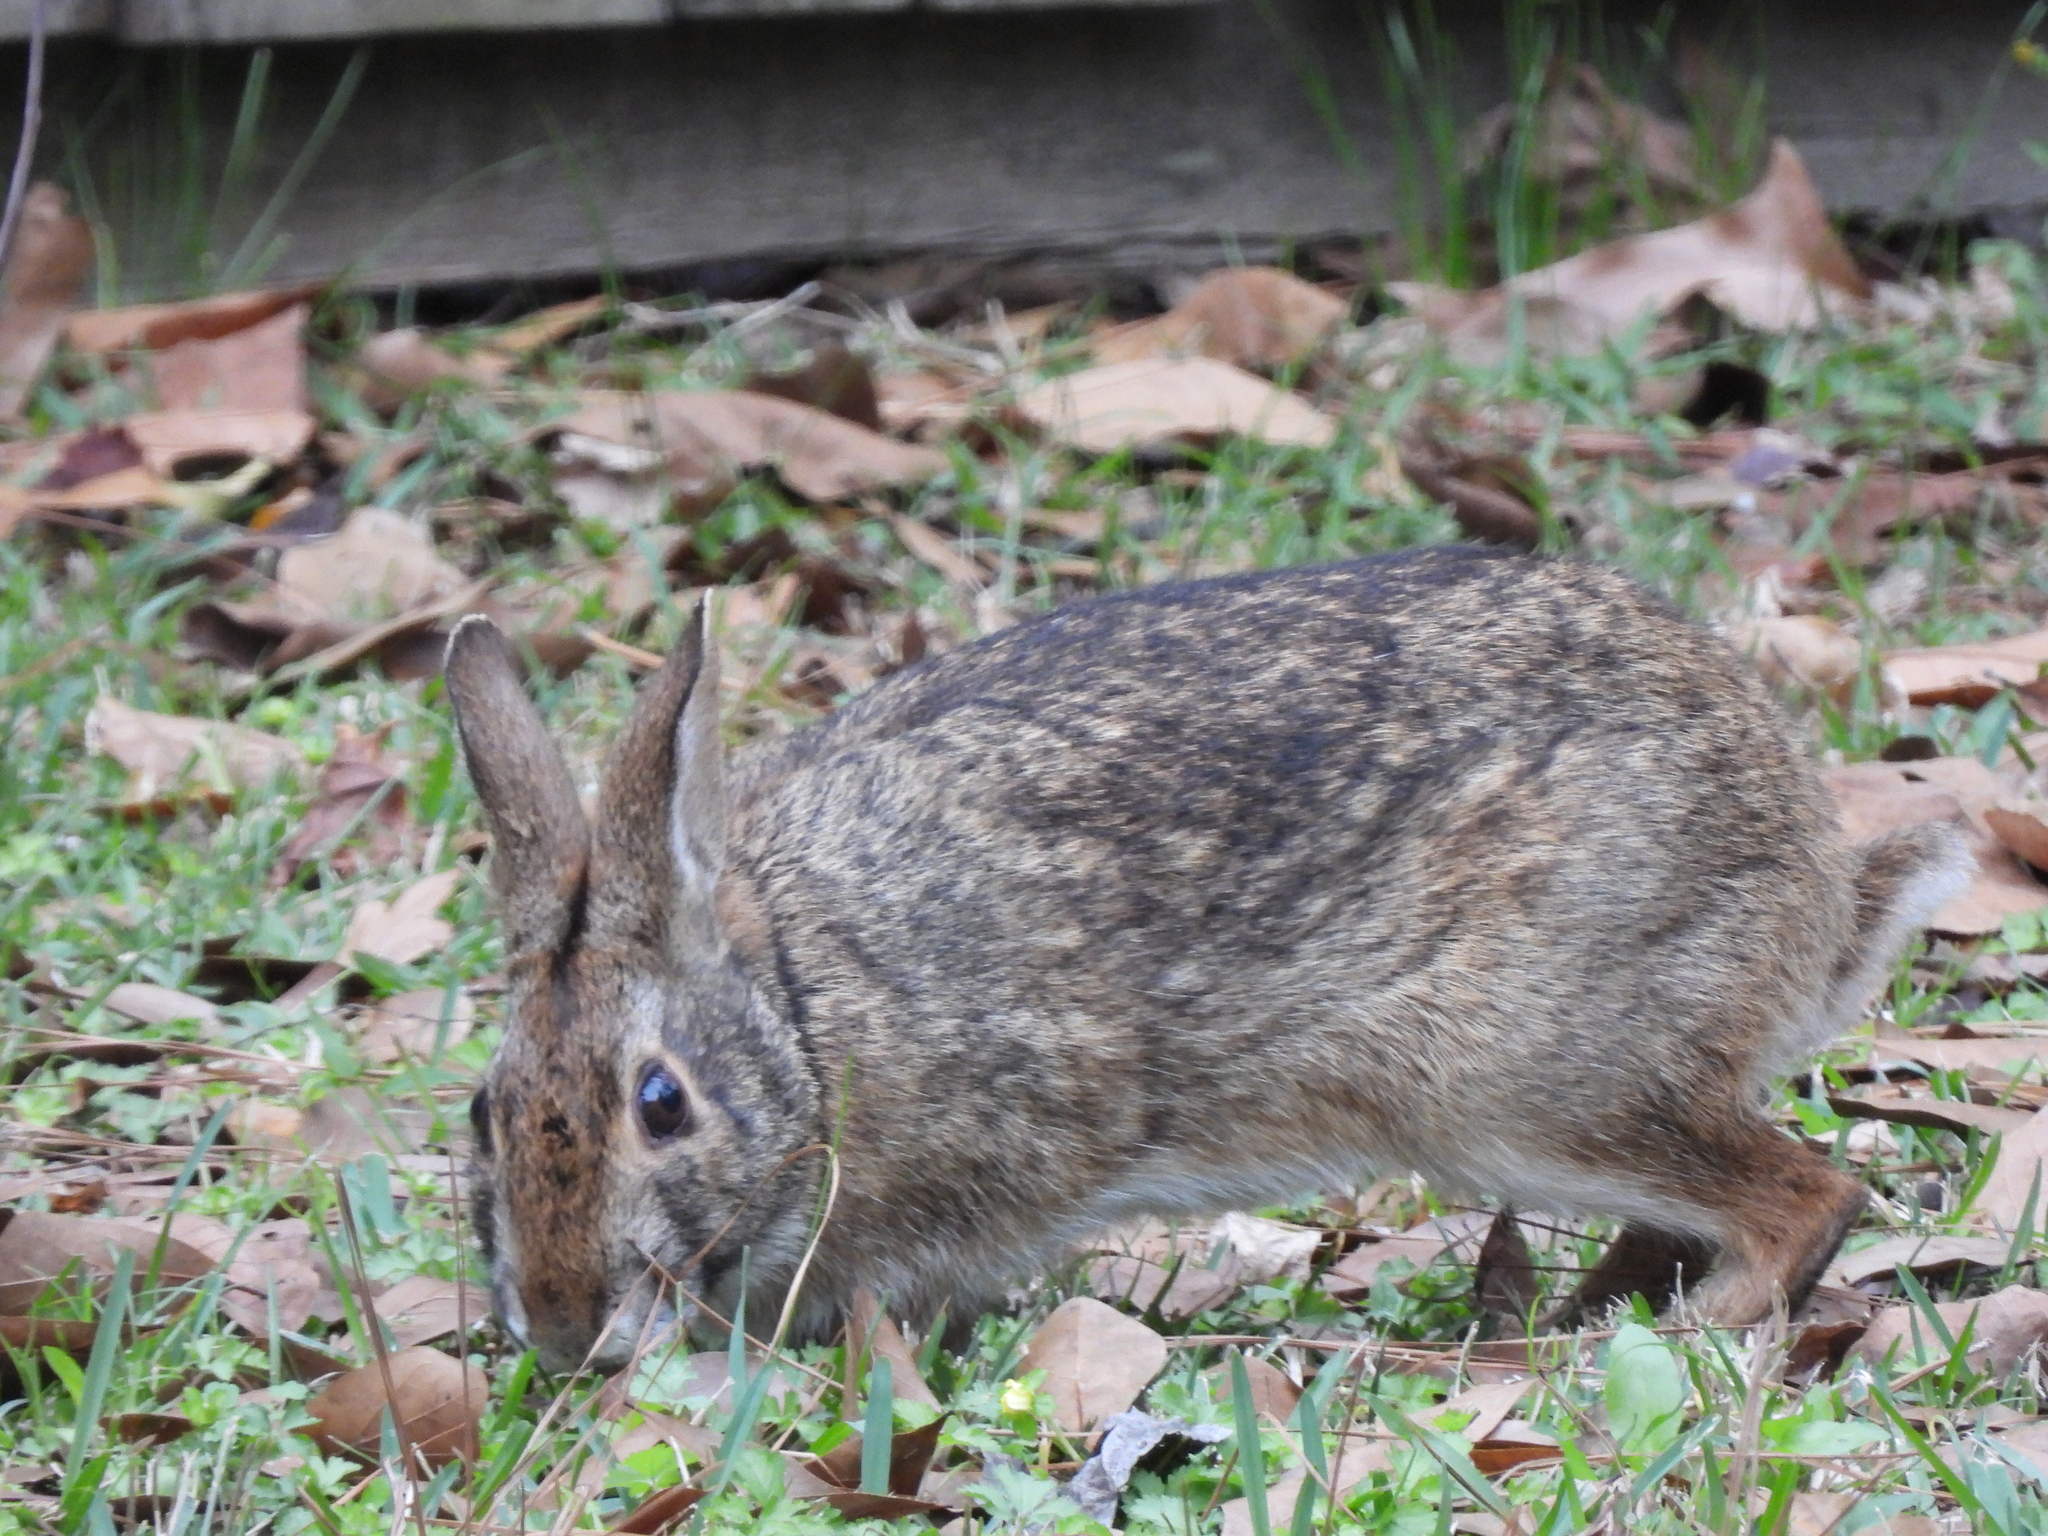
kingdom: Animalia
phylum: Chordata
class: Mammalia
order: Lagomorpha
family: Leporidae
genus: Sylvilagus
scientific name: Sylvilagus aquaticus
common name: Swamp rabbit
